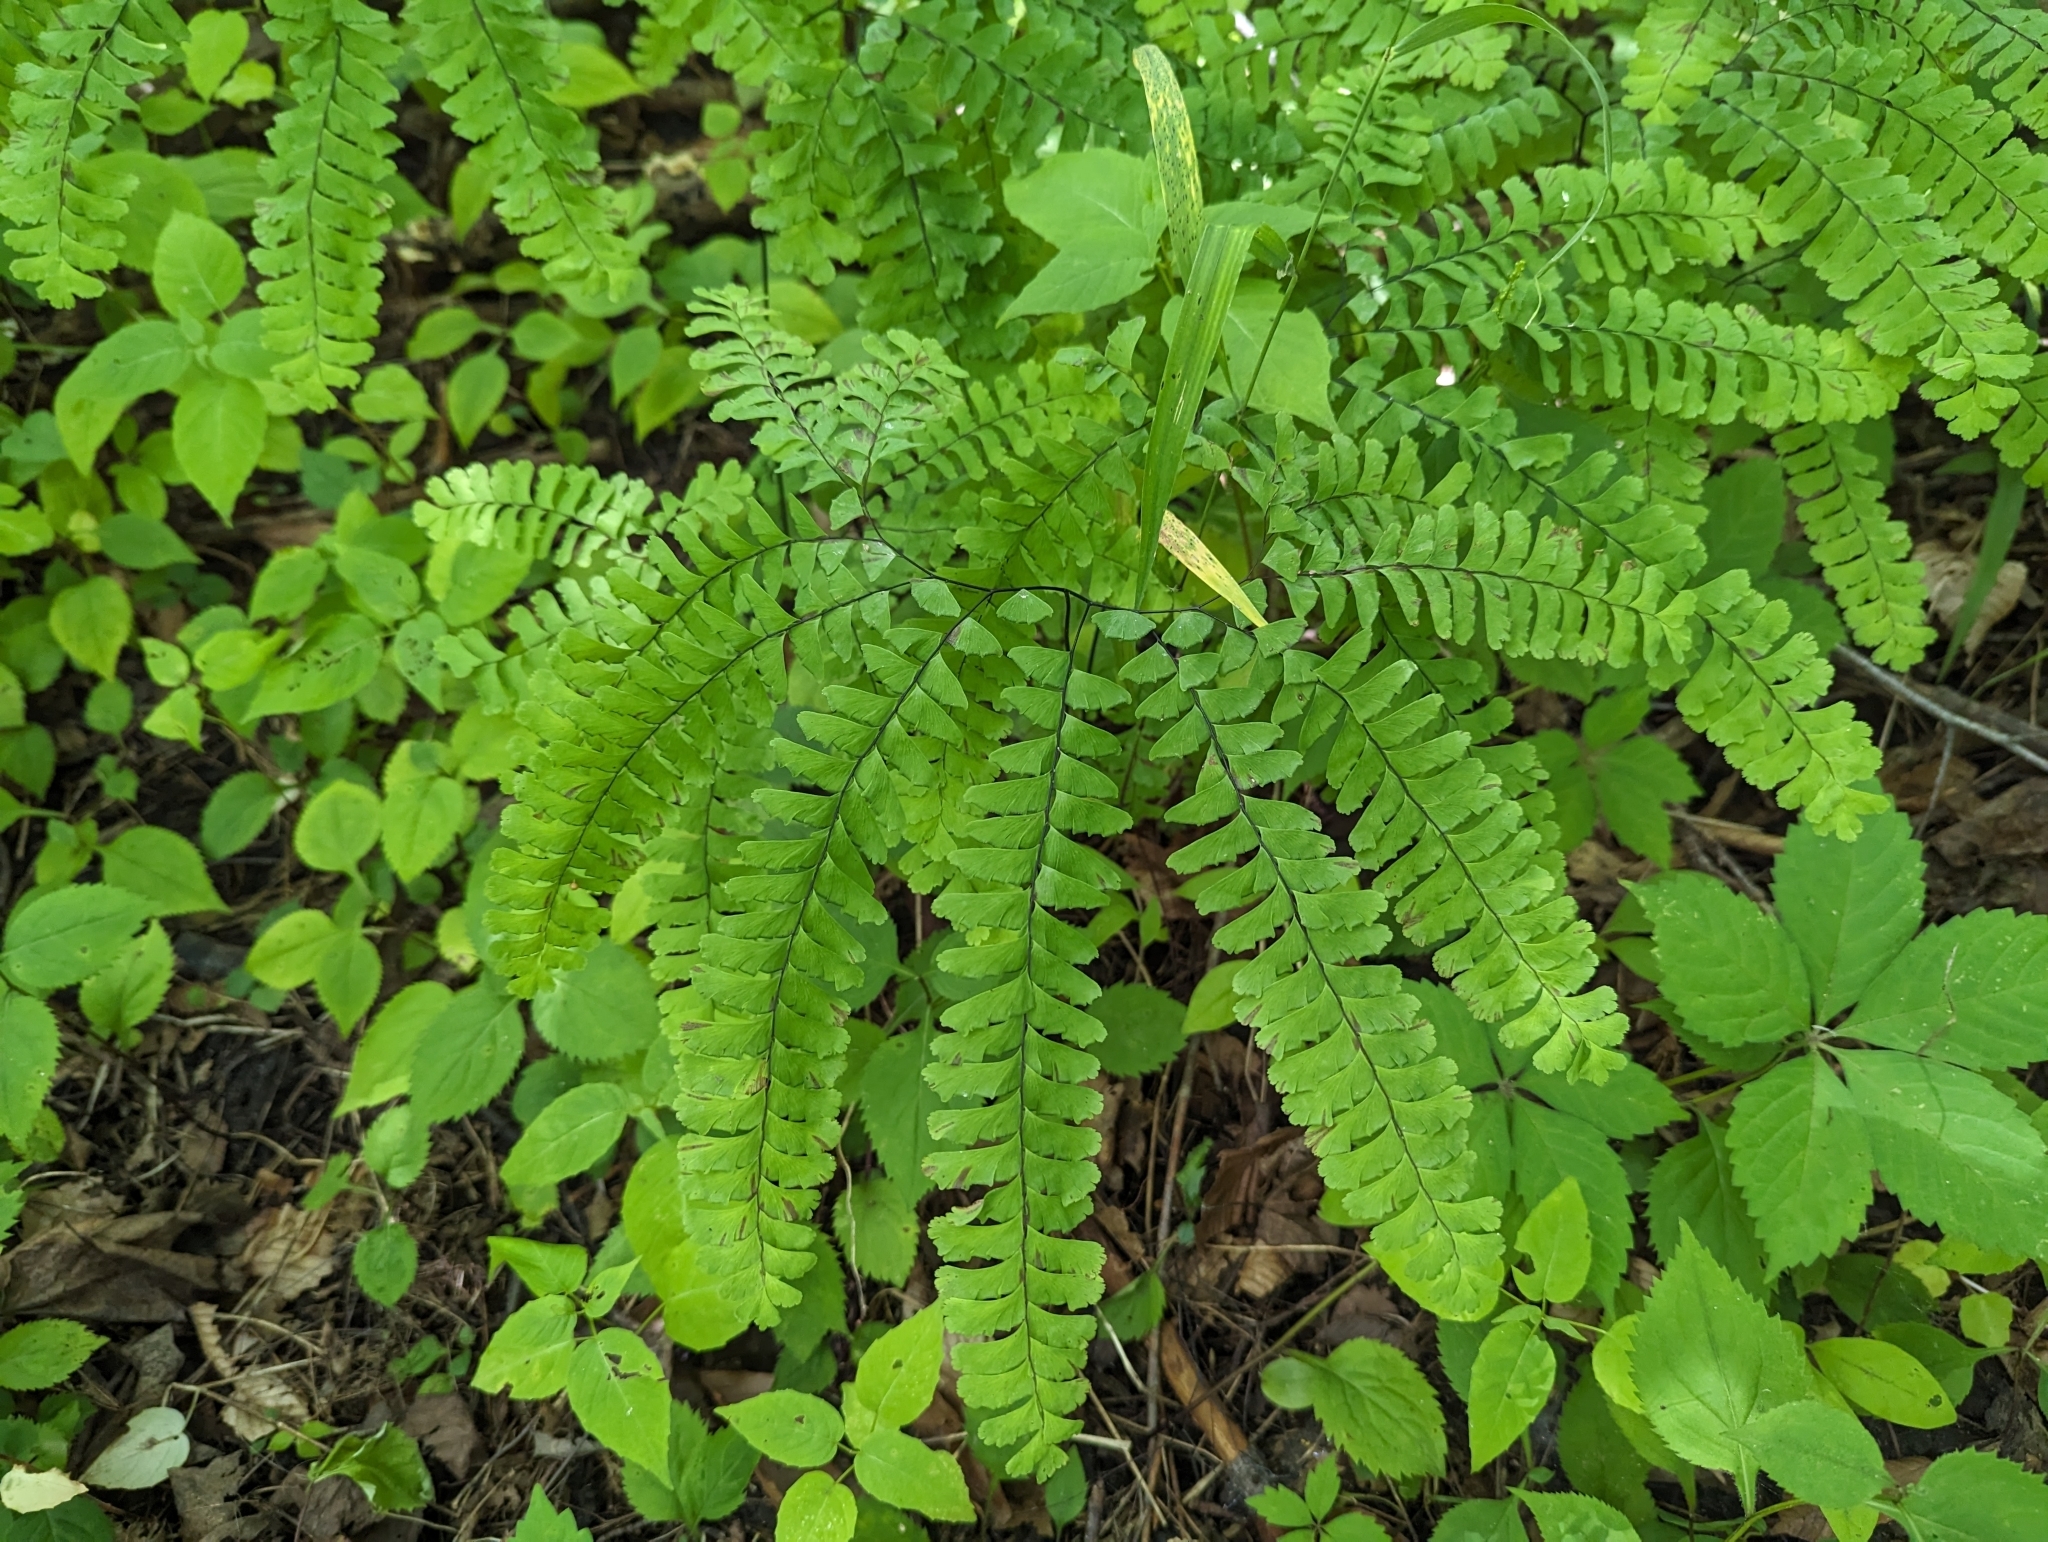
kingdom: Plantae
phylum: Tracheophyta
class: Polypodiopsida
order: Polypodiales
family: Pteridaceae
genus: Adiantum
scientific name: Adiantum pedatum
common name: Five-finger fern
